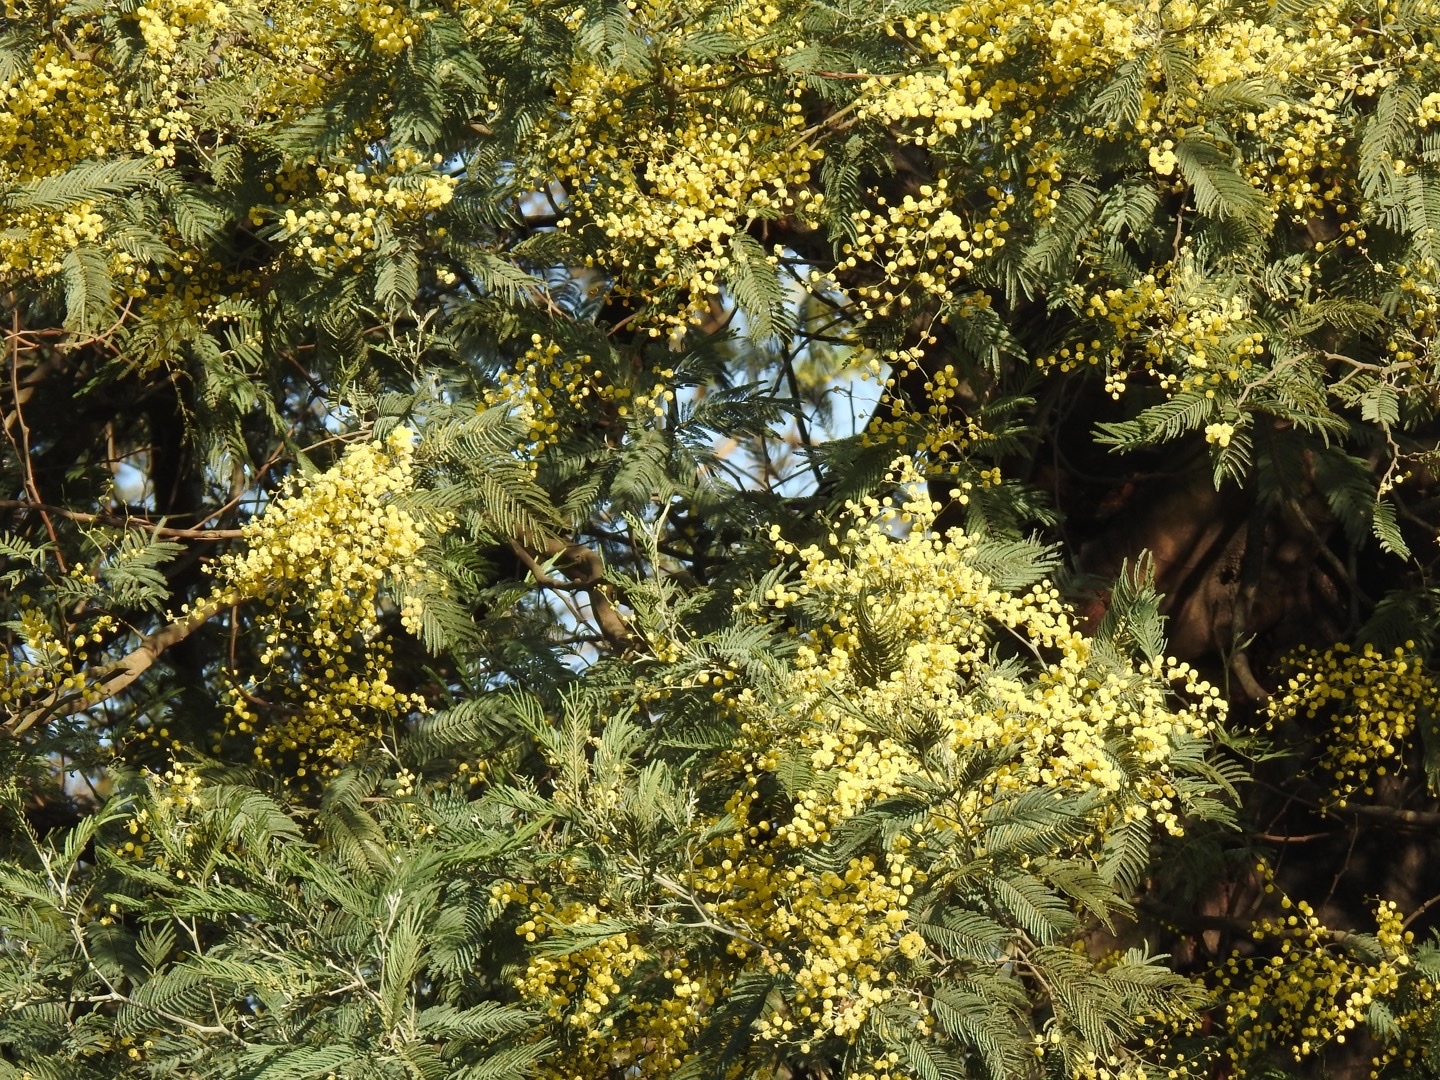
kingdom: Plantae
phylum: Tracheophyta
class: Magnoliopsida
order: Fabales
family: Fabaceae
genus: Acacia
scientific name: Acacia dealbata
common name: Silver wattle
